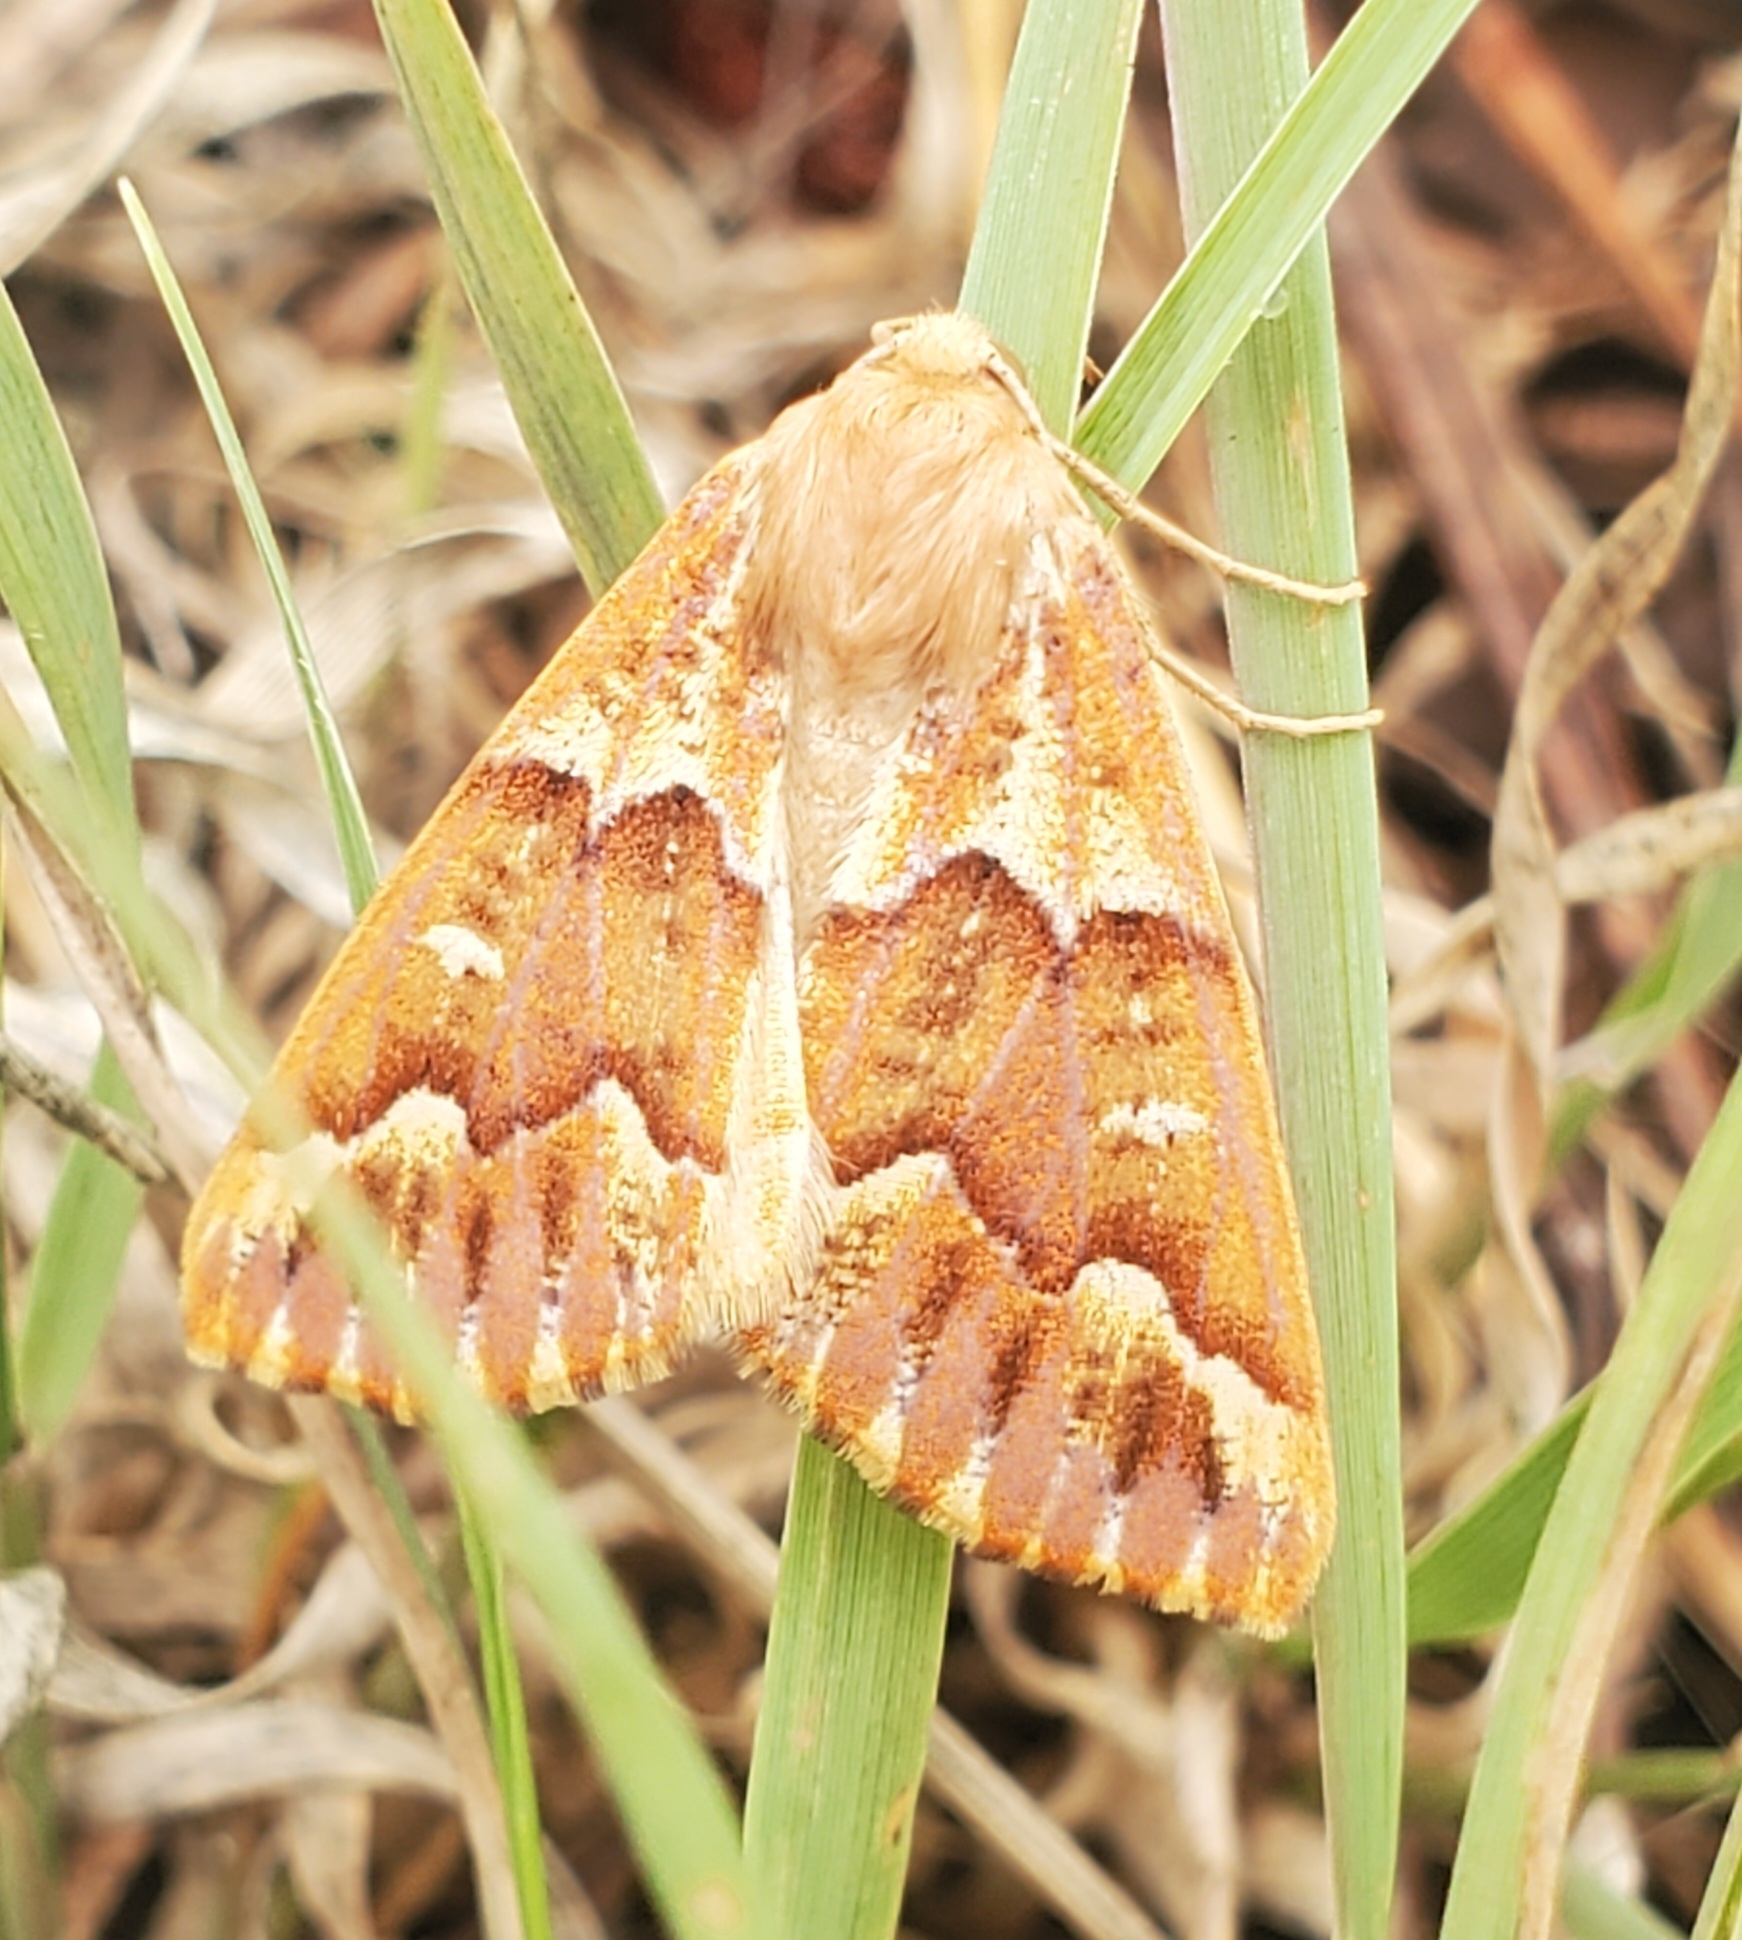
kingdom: Animalia
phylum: Arthropoda
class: Insecta
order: Lepidoptera
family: Geometridae
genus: Caripeta
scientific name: Caripeta aequaliaria
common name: Red girdle moth
